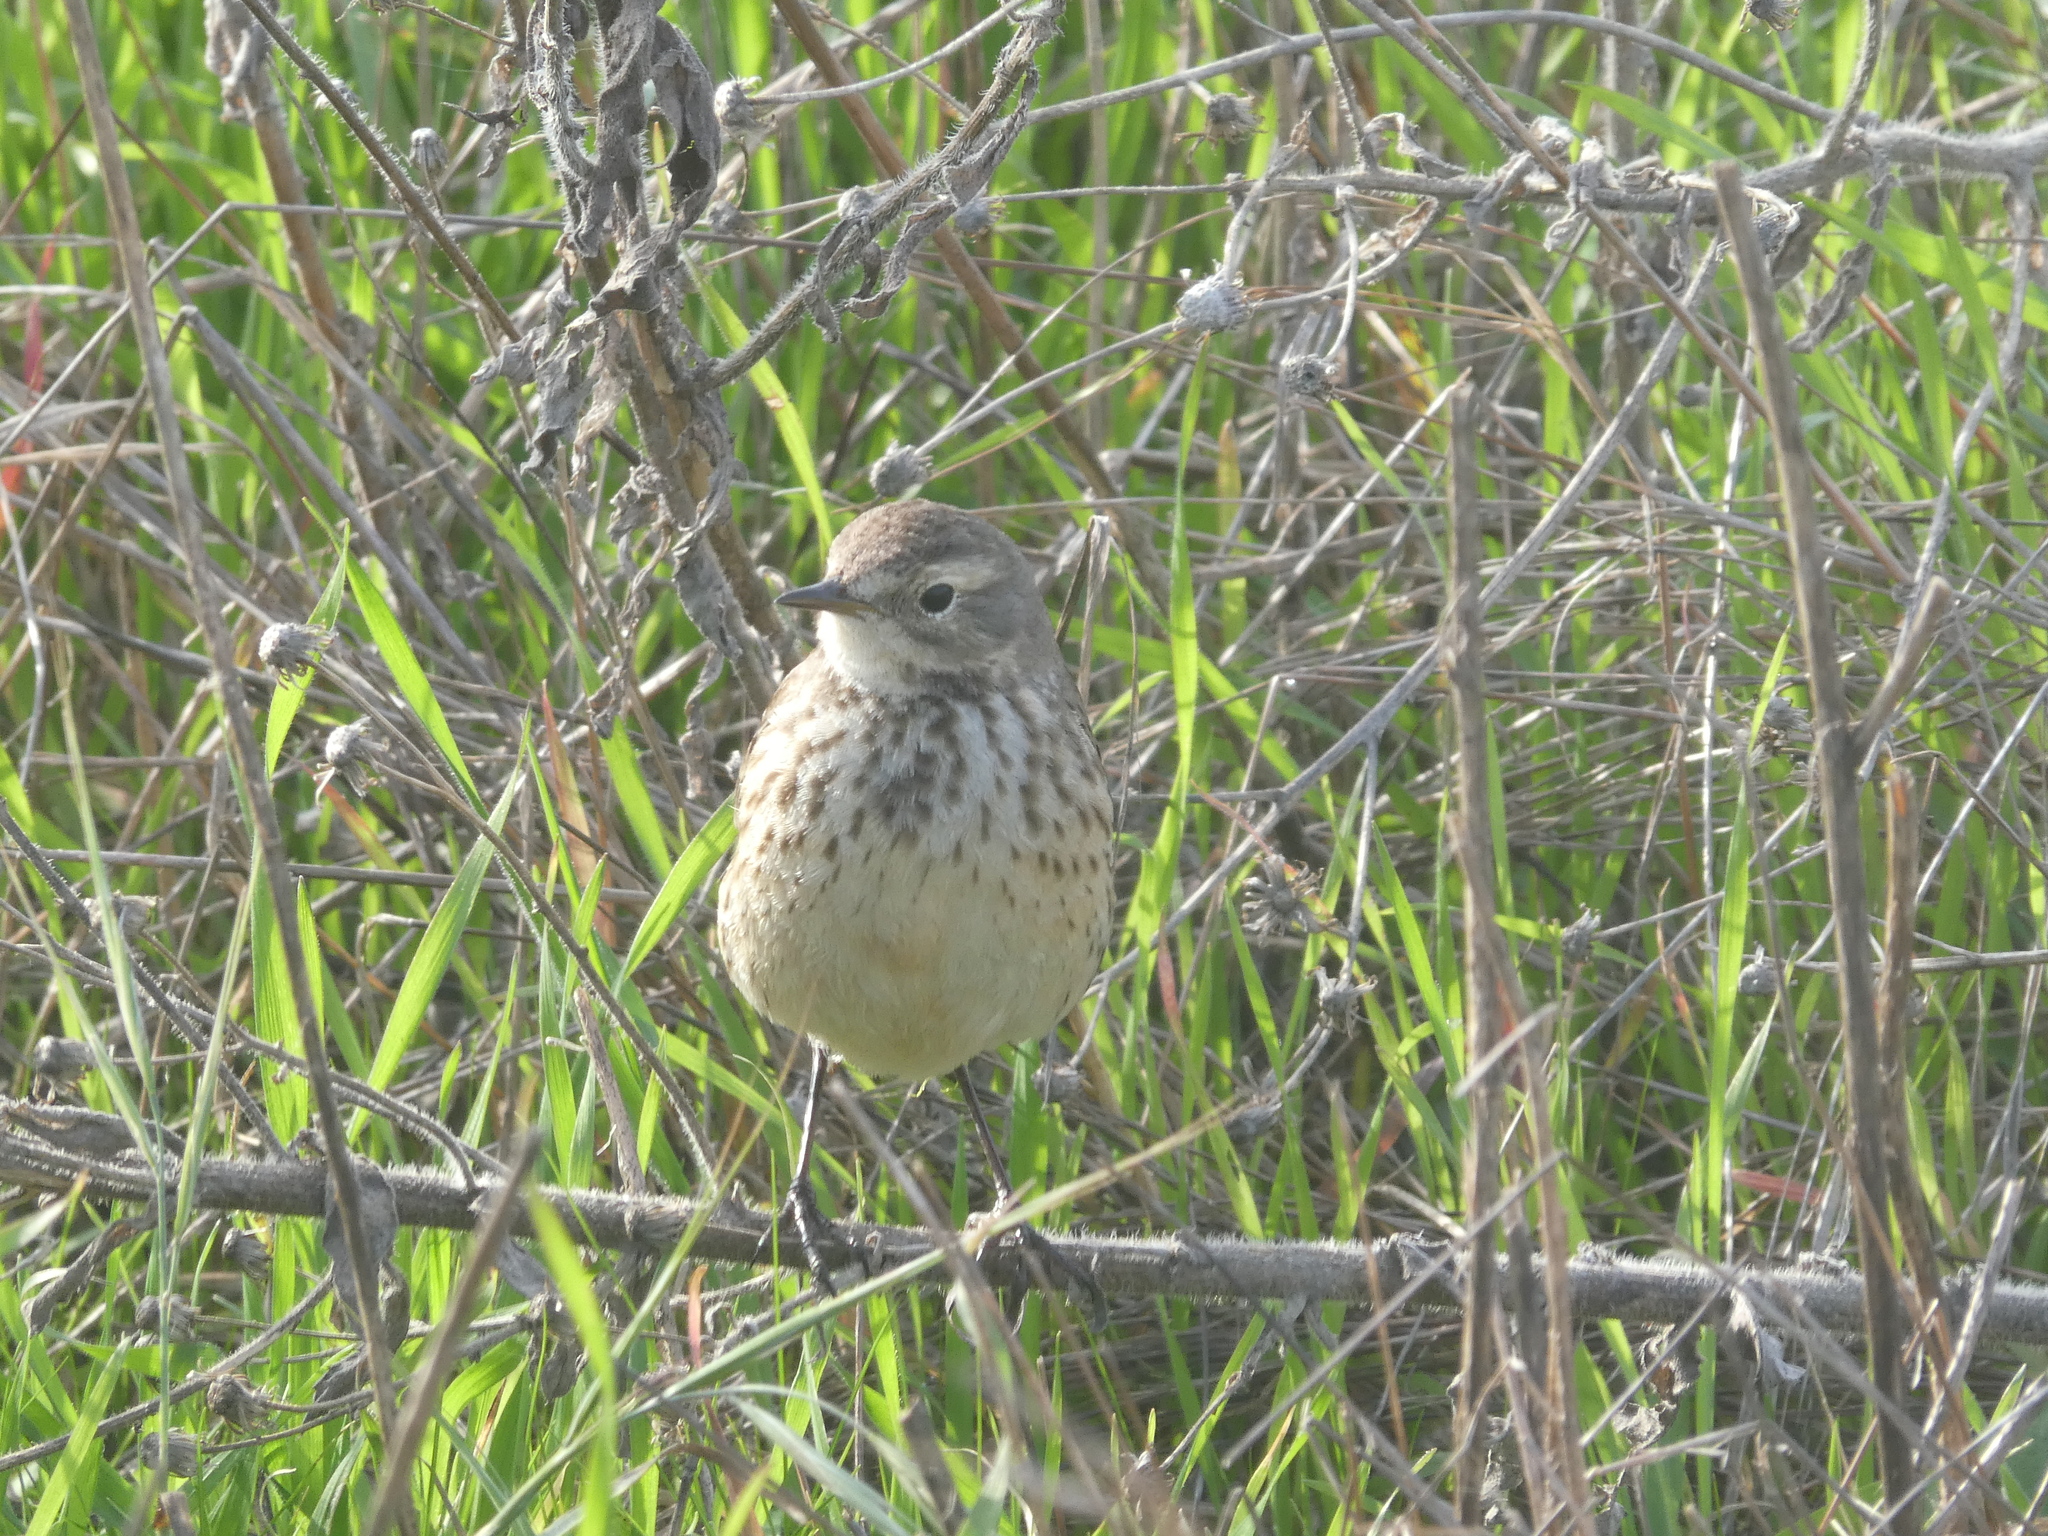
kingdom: Animalia
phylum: Chordata
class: Aves
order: Passeriformes
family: Motacillidae
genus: Anthus
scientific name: Anthus rubescens
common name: Buff-bellied pipit
